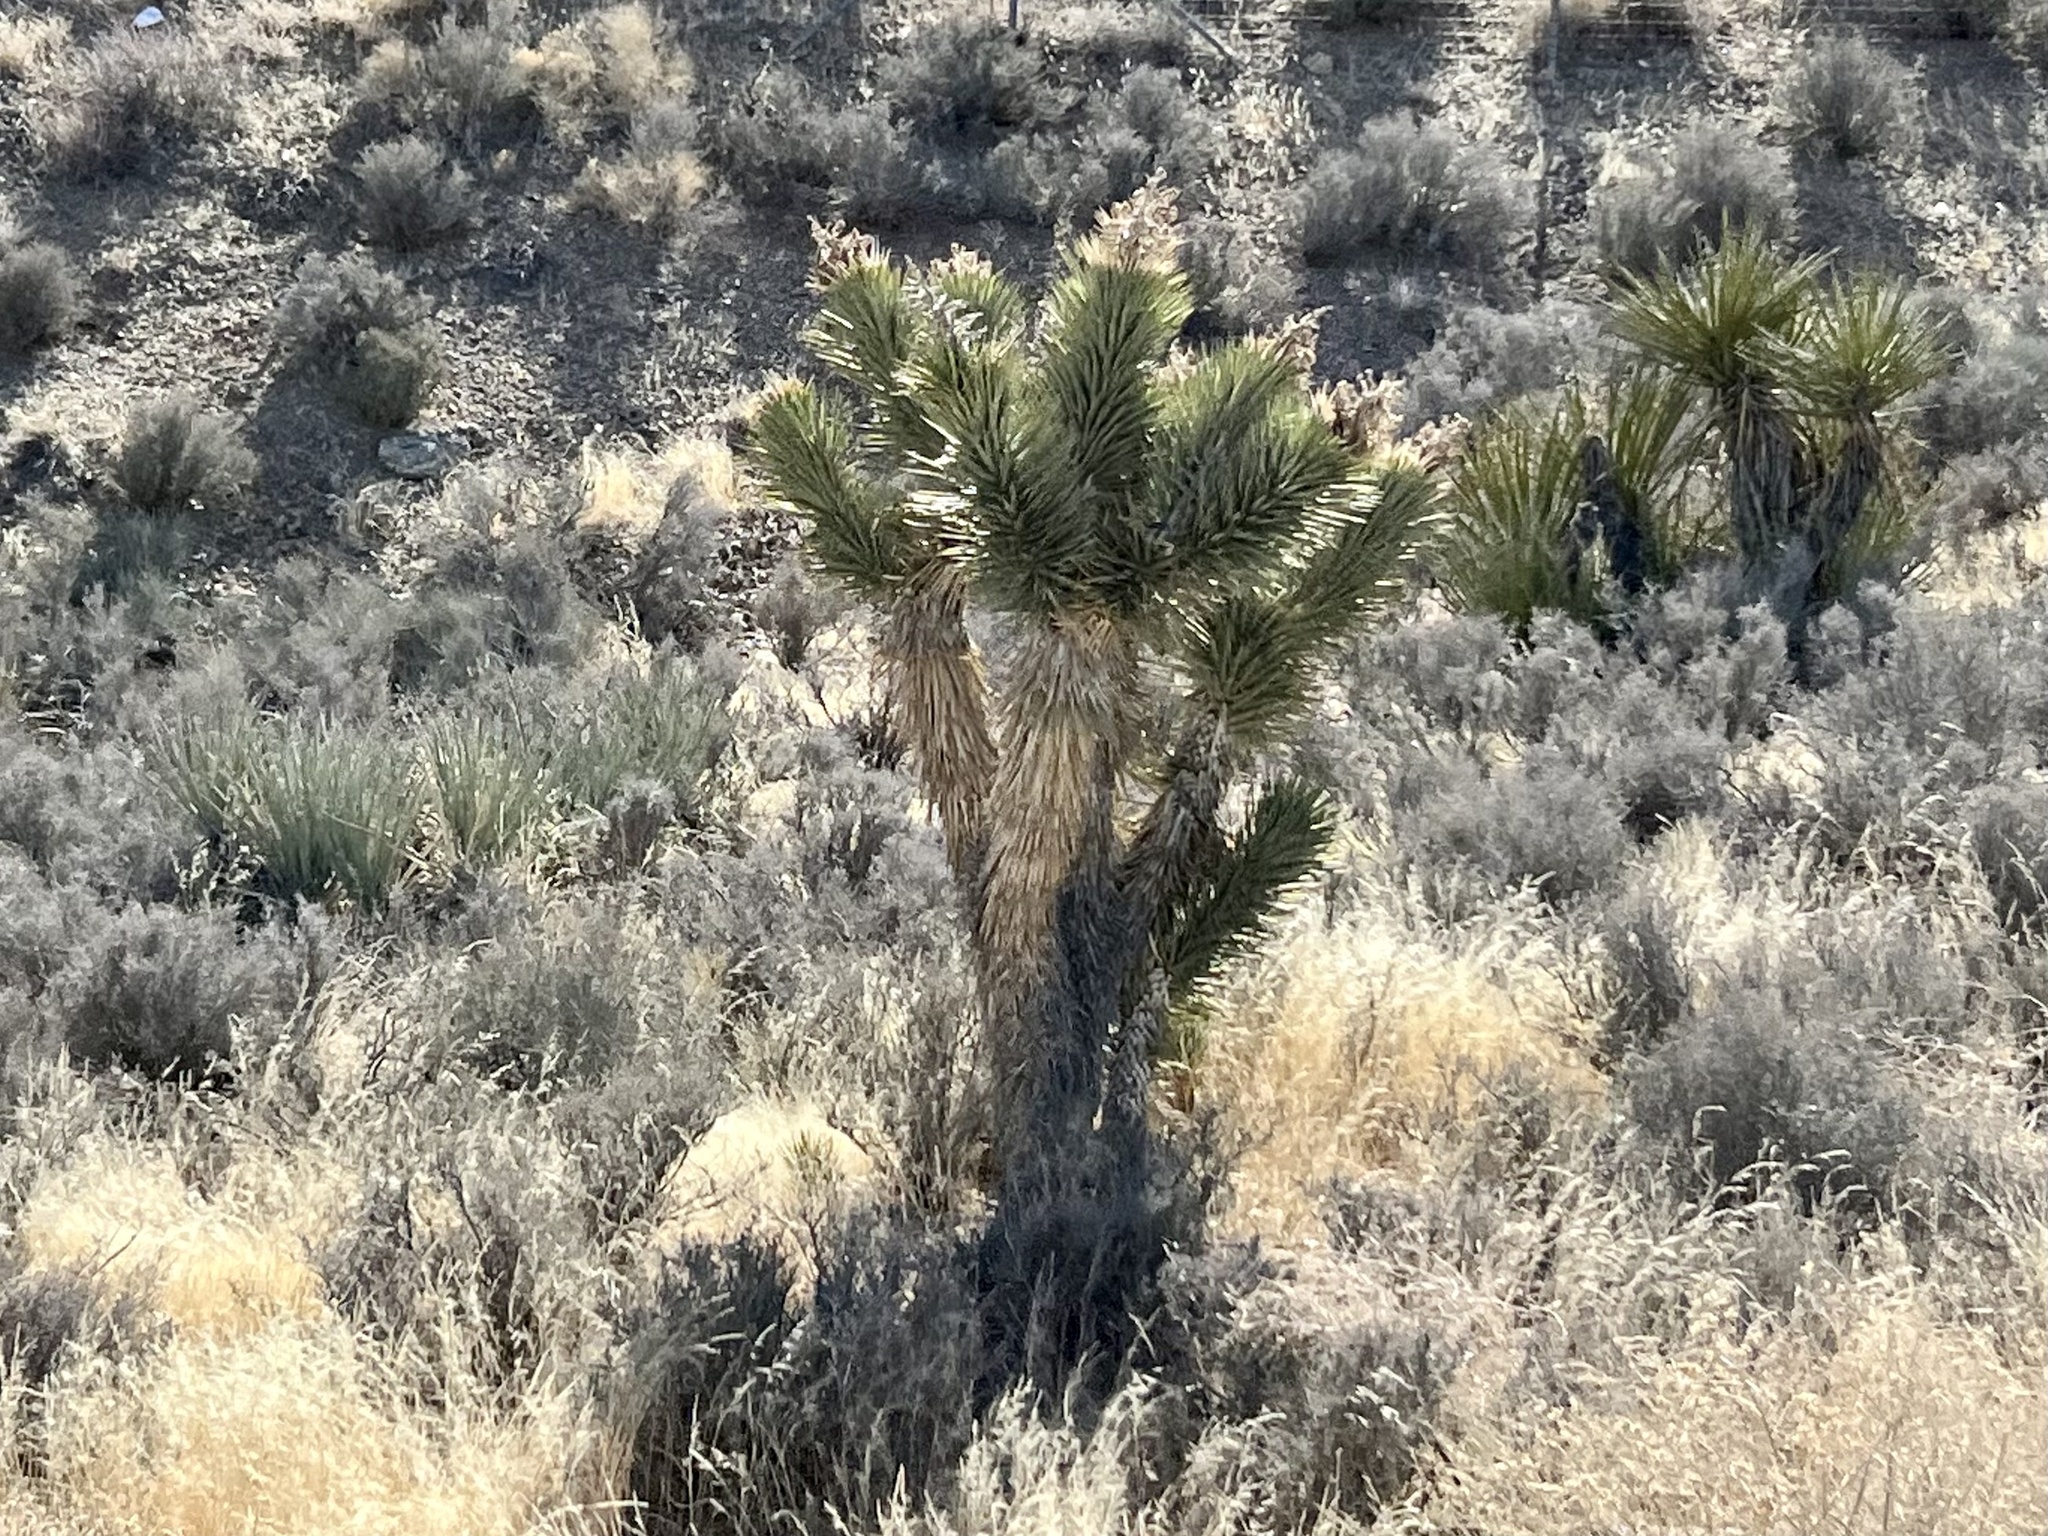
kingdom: Plantae
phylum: Tracheophyta
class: Liliopsida
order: Asparagales
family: Asparagaceae
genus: Yucca
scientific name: Yucca brevifolia
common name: Joshua tree
